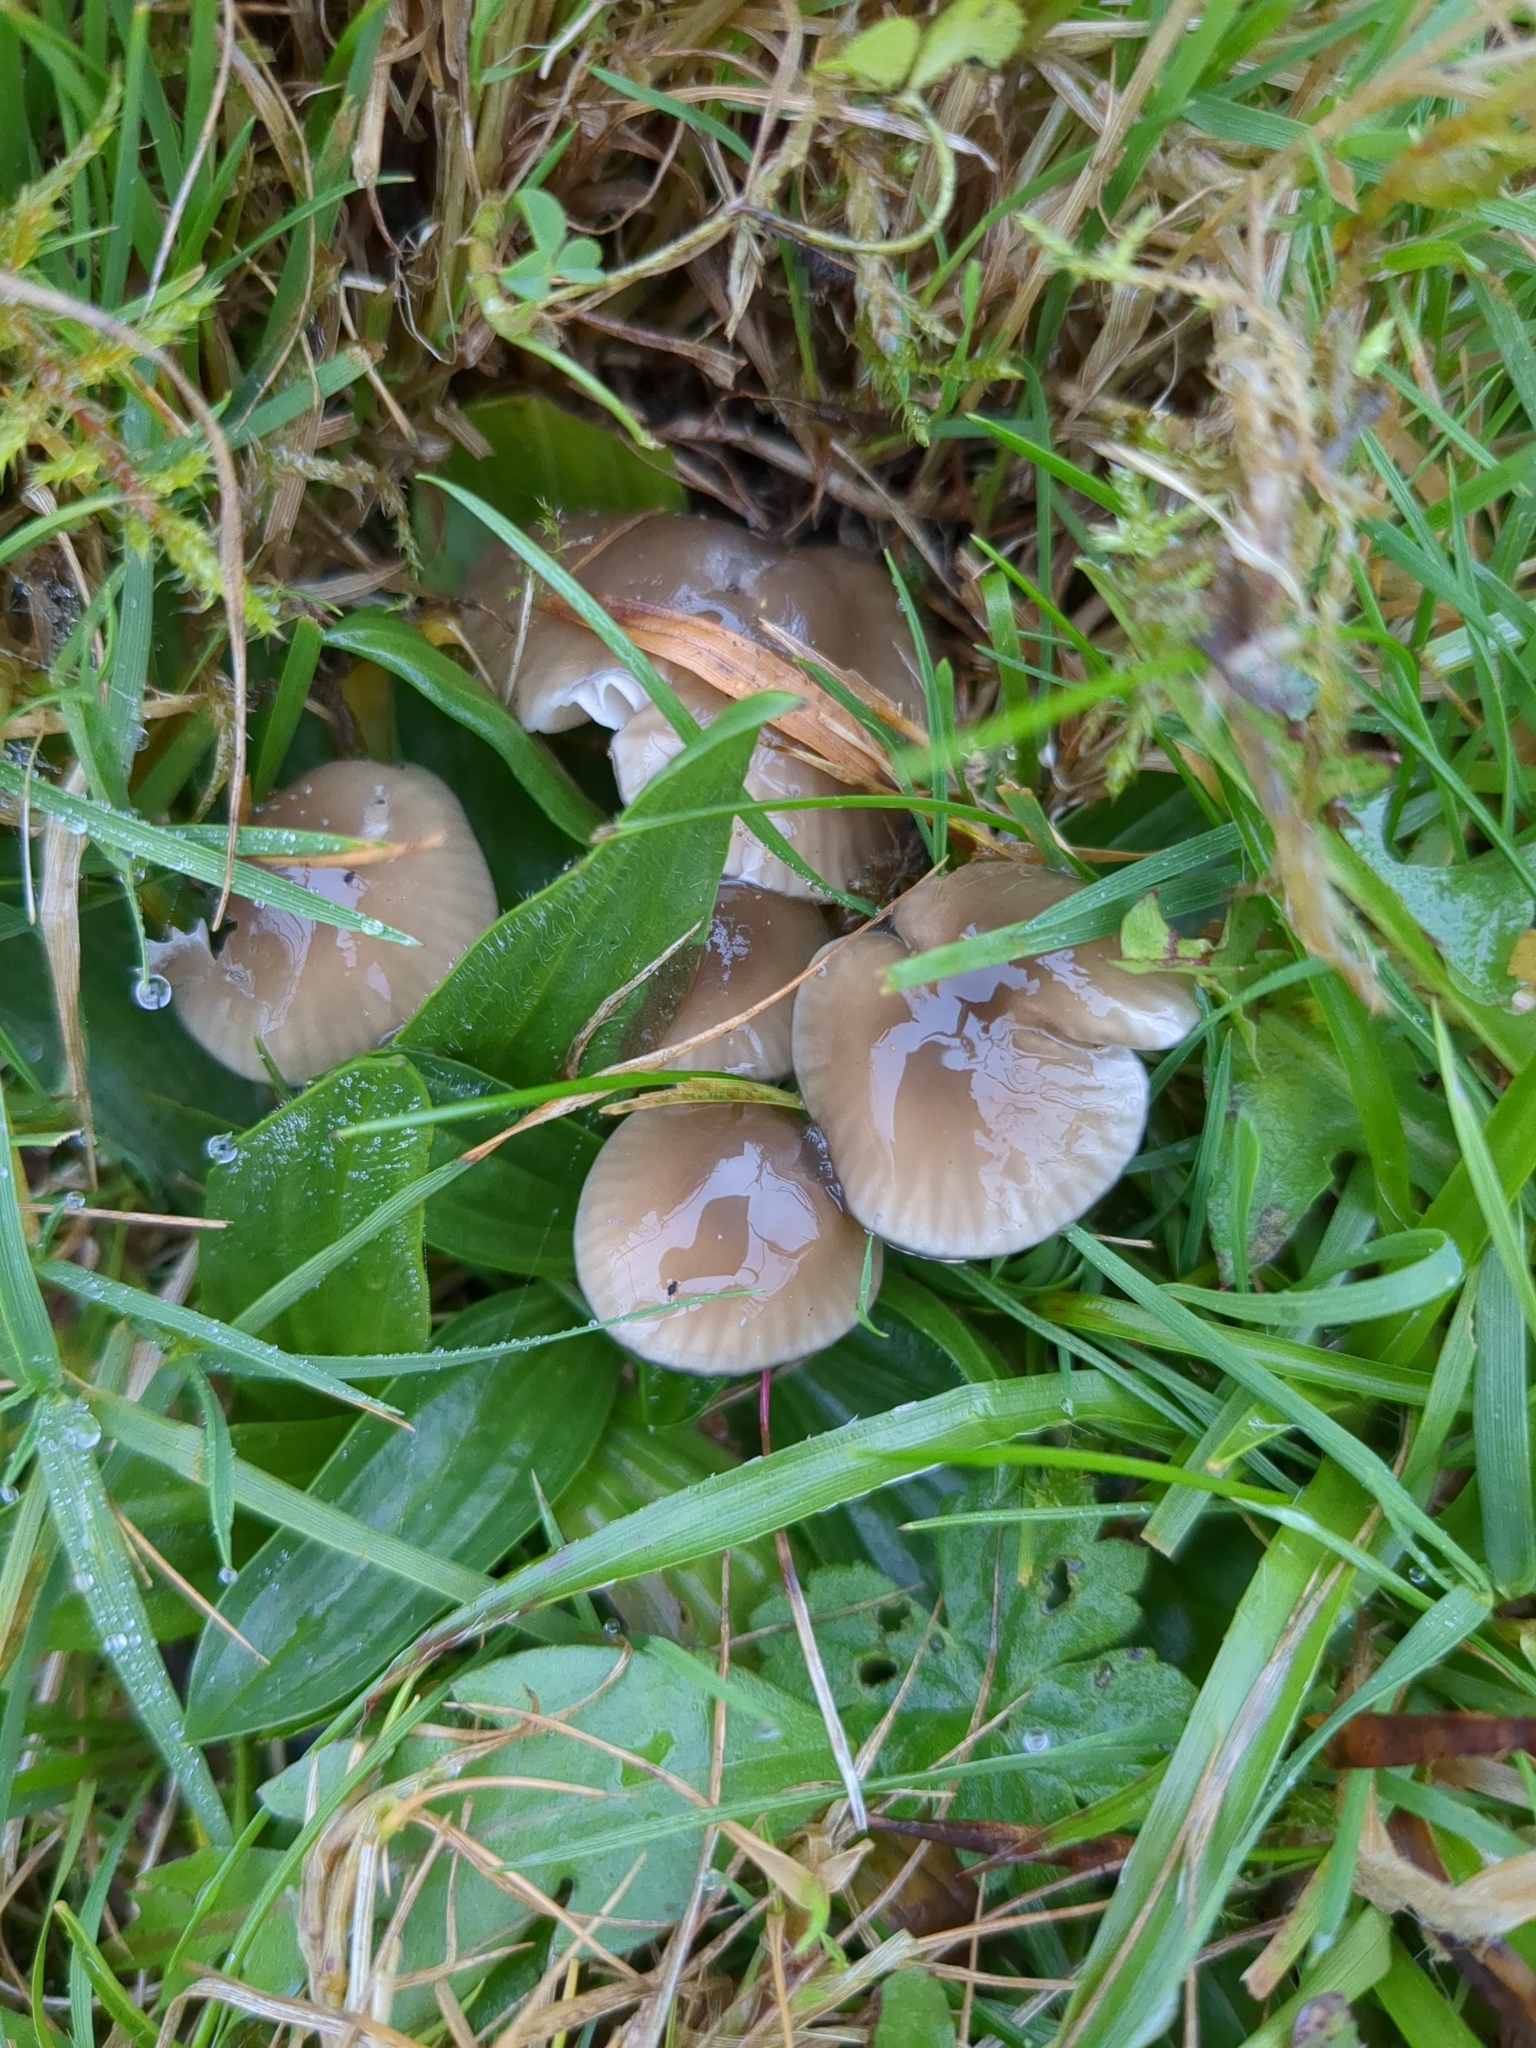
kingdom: Fungi
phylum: Basidiomycota
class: Agaricomycetes
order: Agaricales
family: Hygrophoraceae
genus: Gliophorus
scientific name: Gliophorus irrigatus
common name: Slimy waxcap
